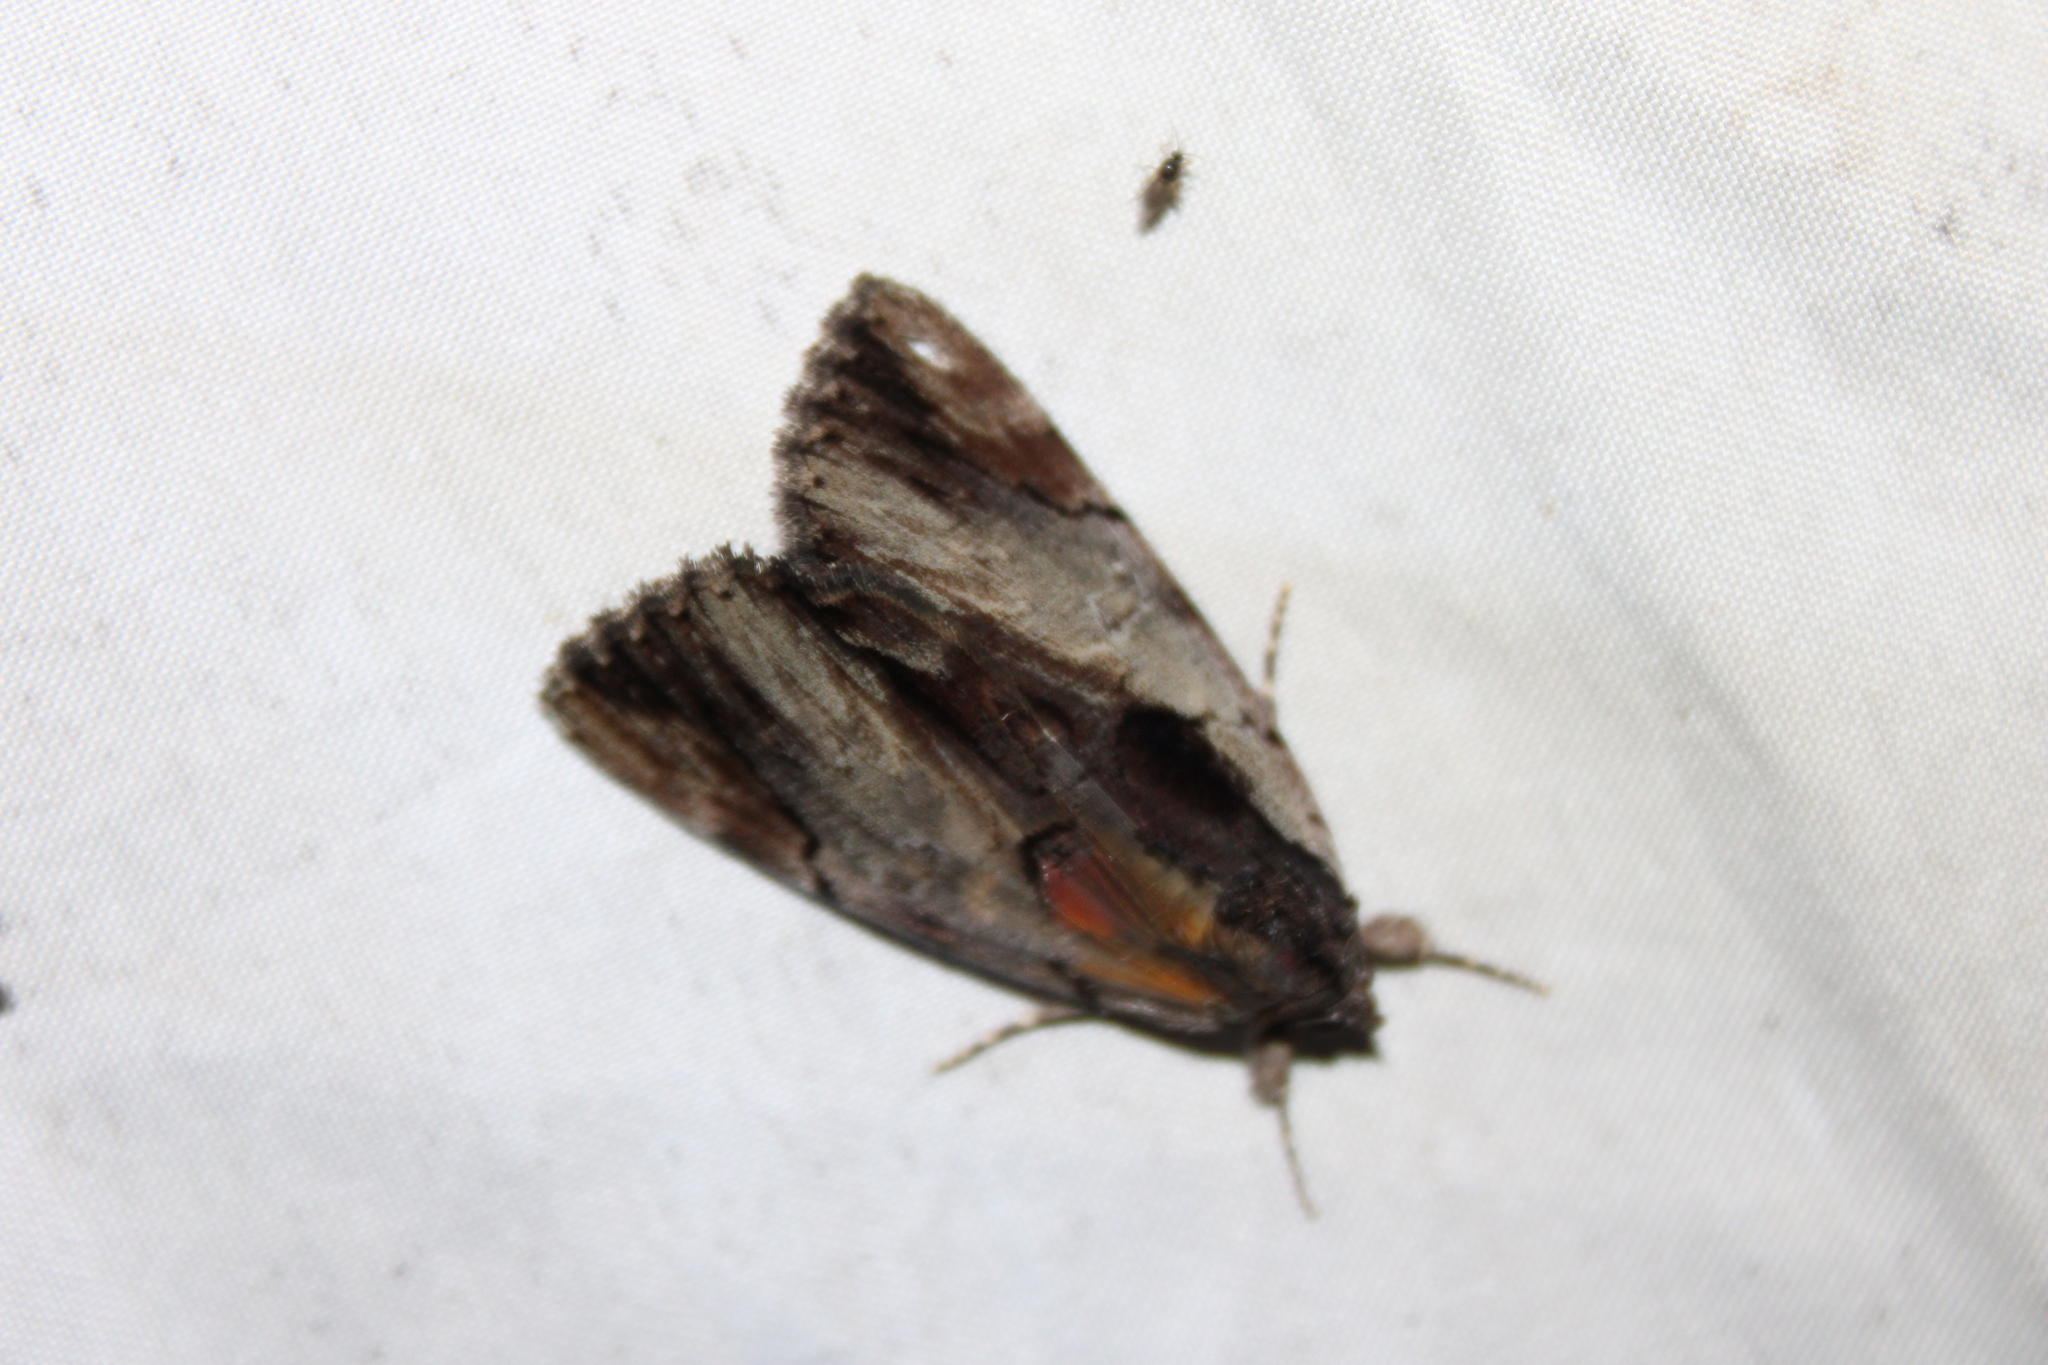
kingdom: Animalia
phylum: Arthropoda
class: Insecta
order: Lepidoptera
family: Erebidae
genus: Catocala
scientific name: Catocala ultronia
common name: Ultronia underwing
